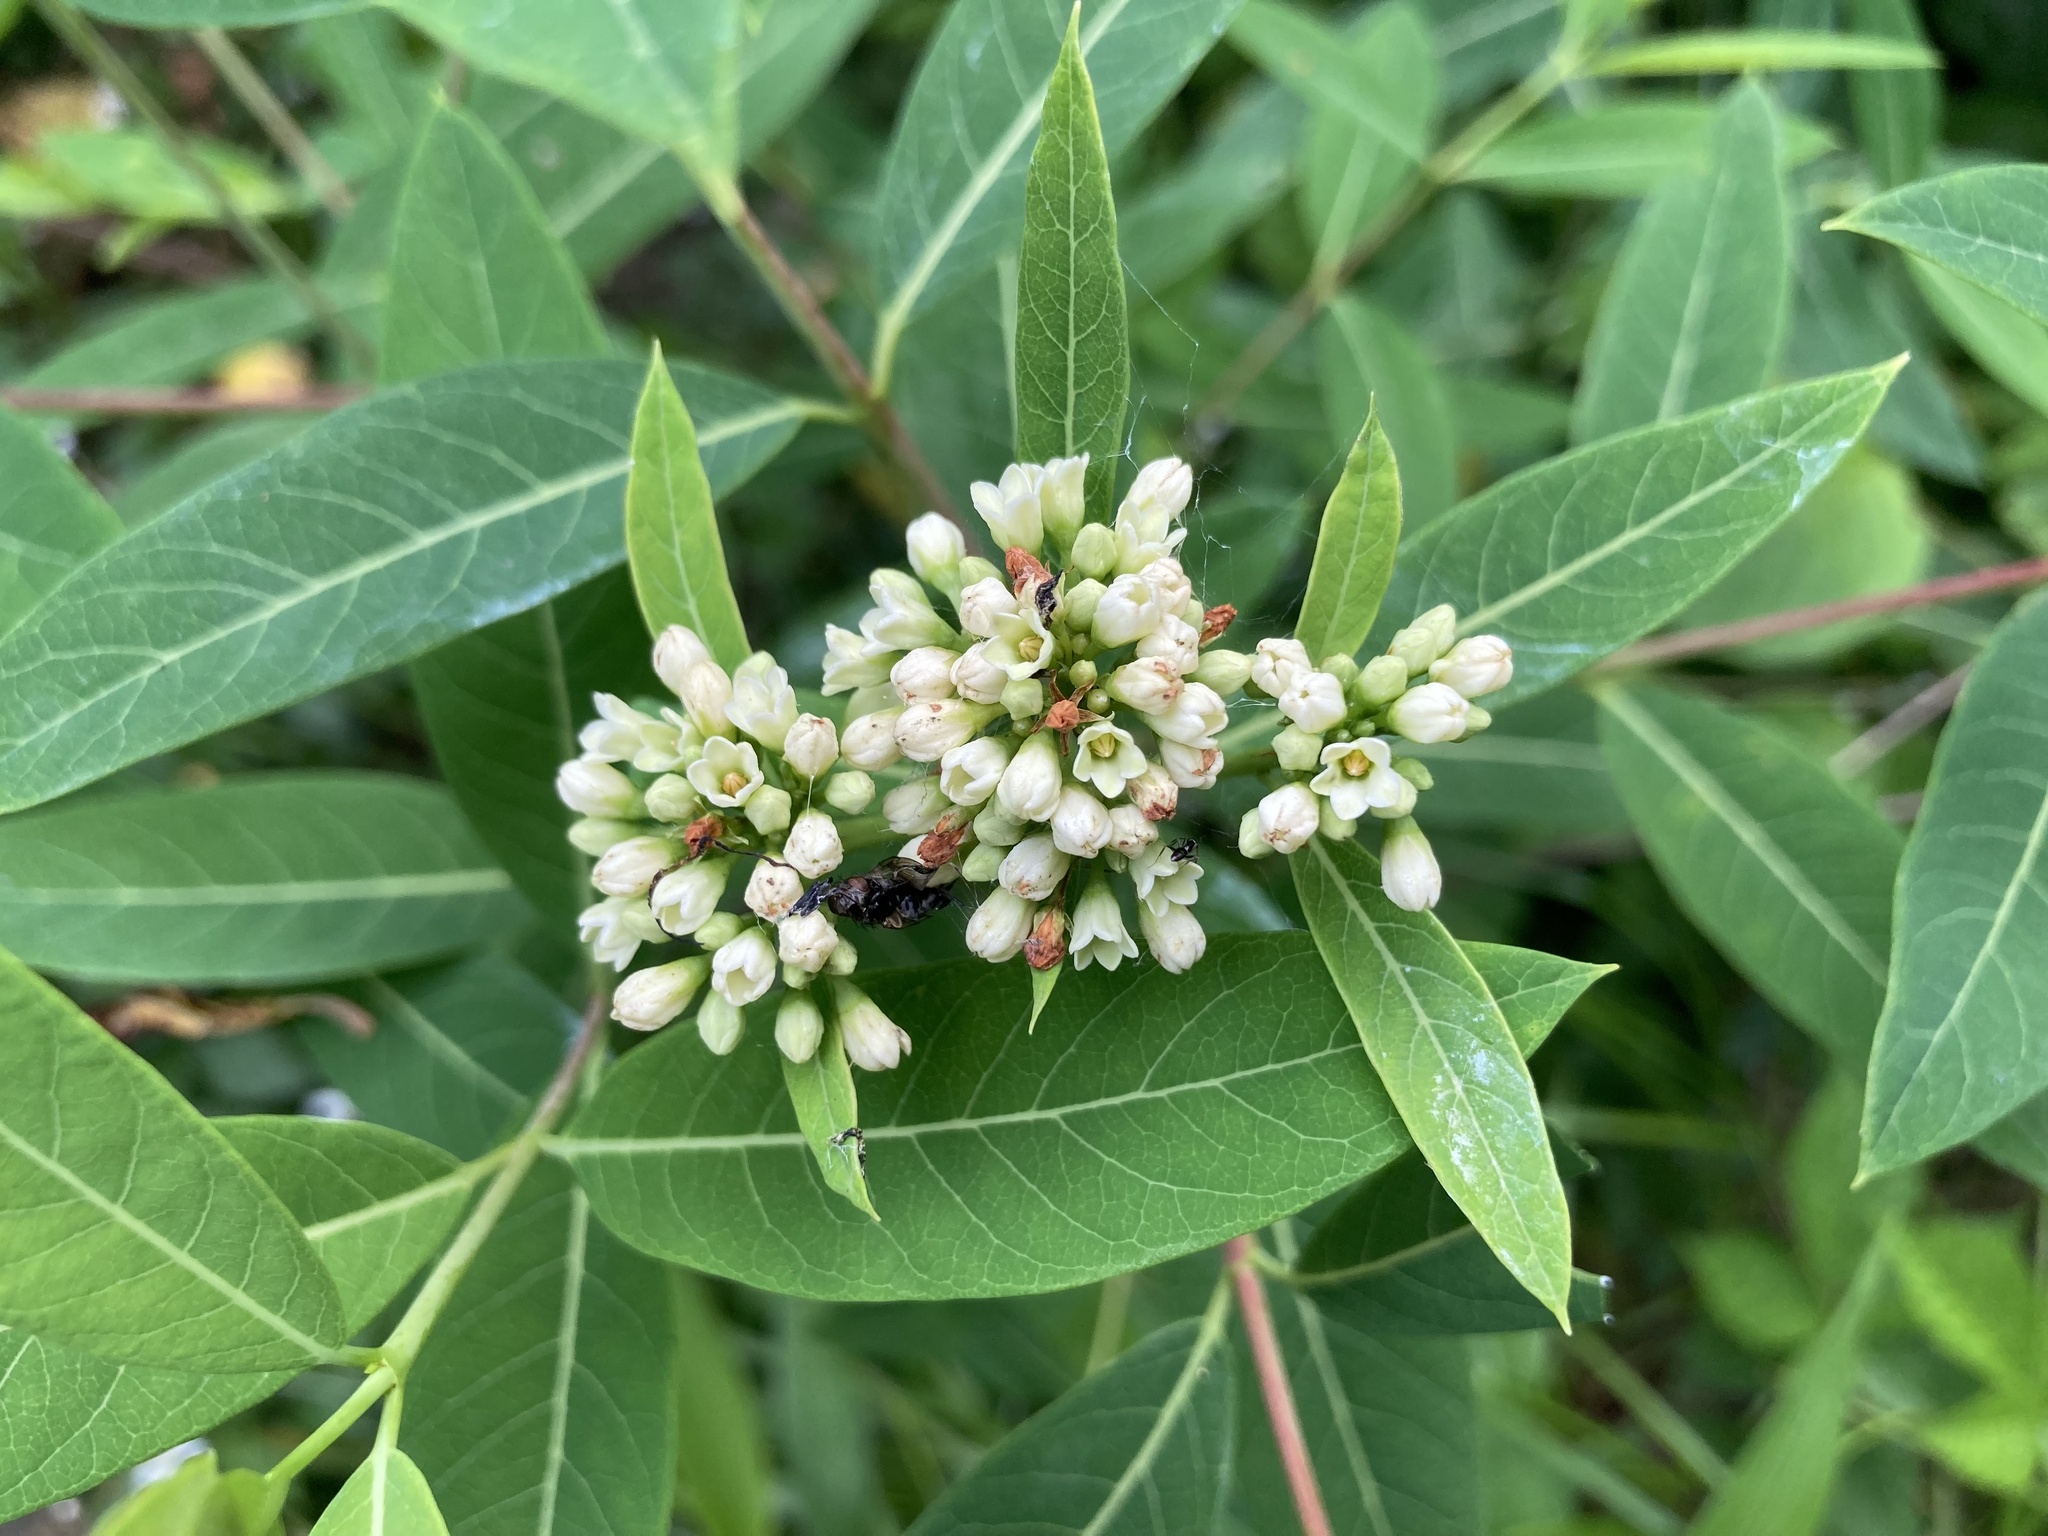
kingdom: Plantae
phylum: Tracheophyta
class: Magnoliopsida
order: Gentianales
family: Apocynaceae
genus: Apocynum
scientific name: Apocynum cannabinum
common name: Hemp dogbane
